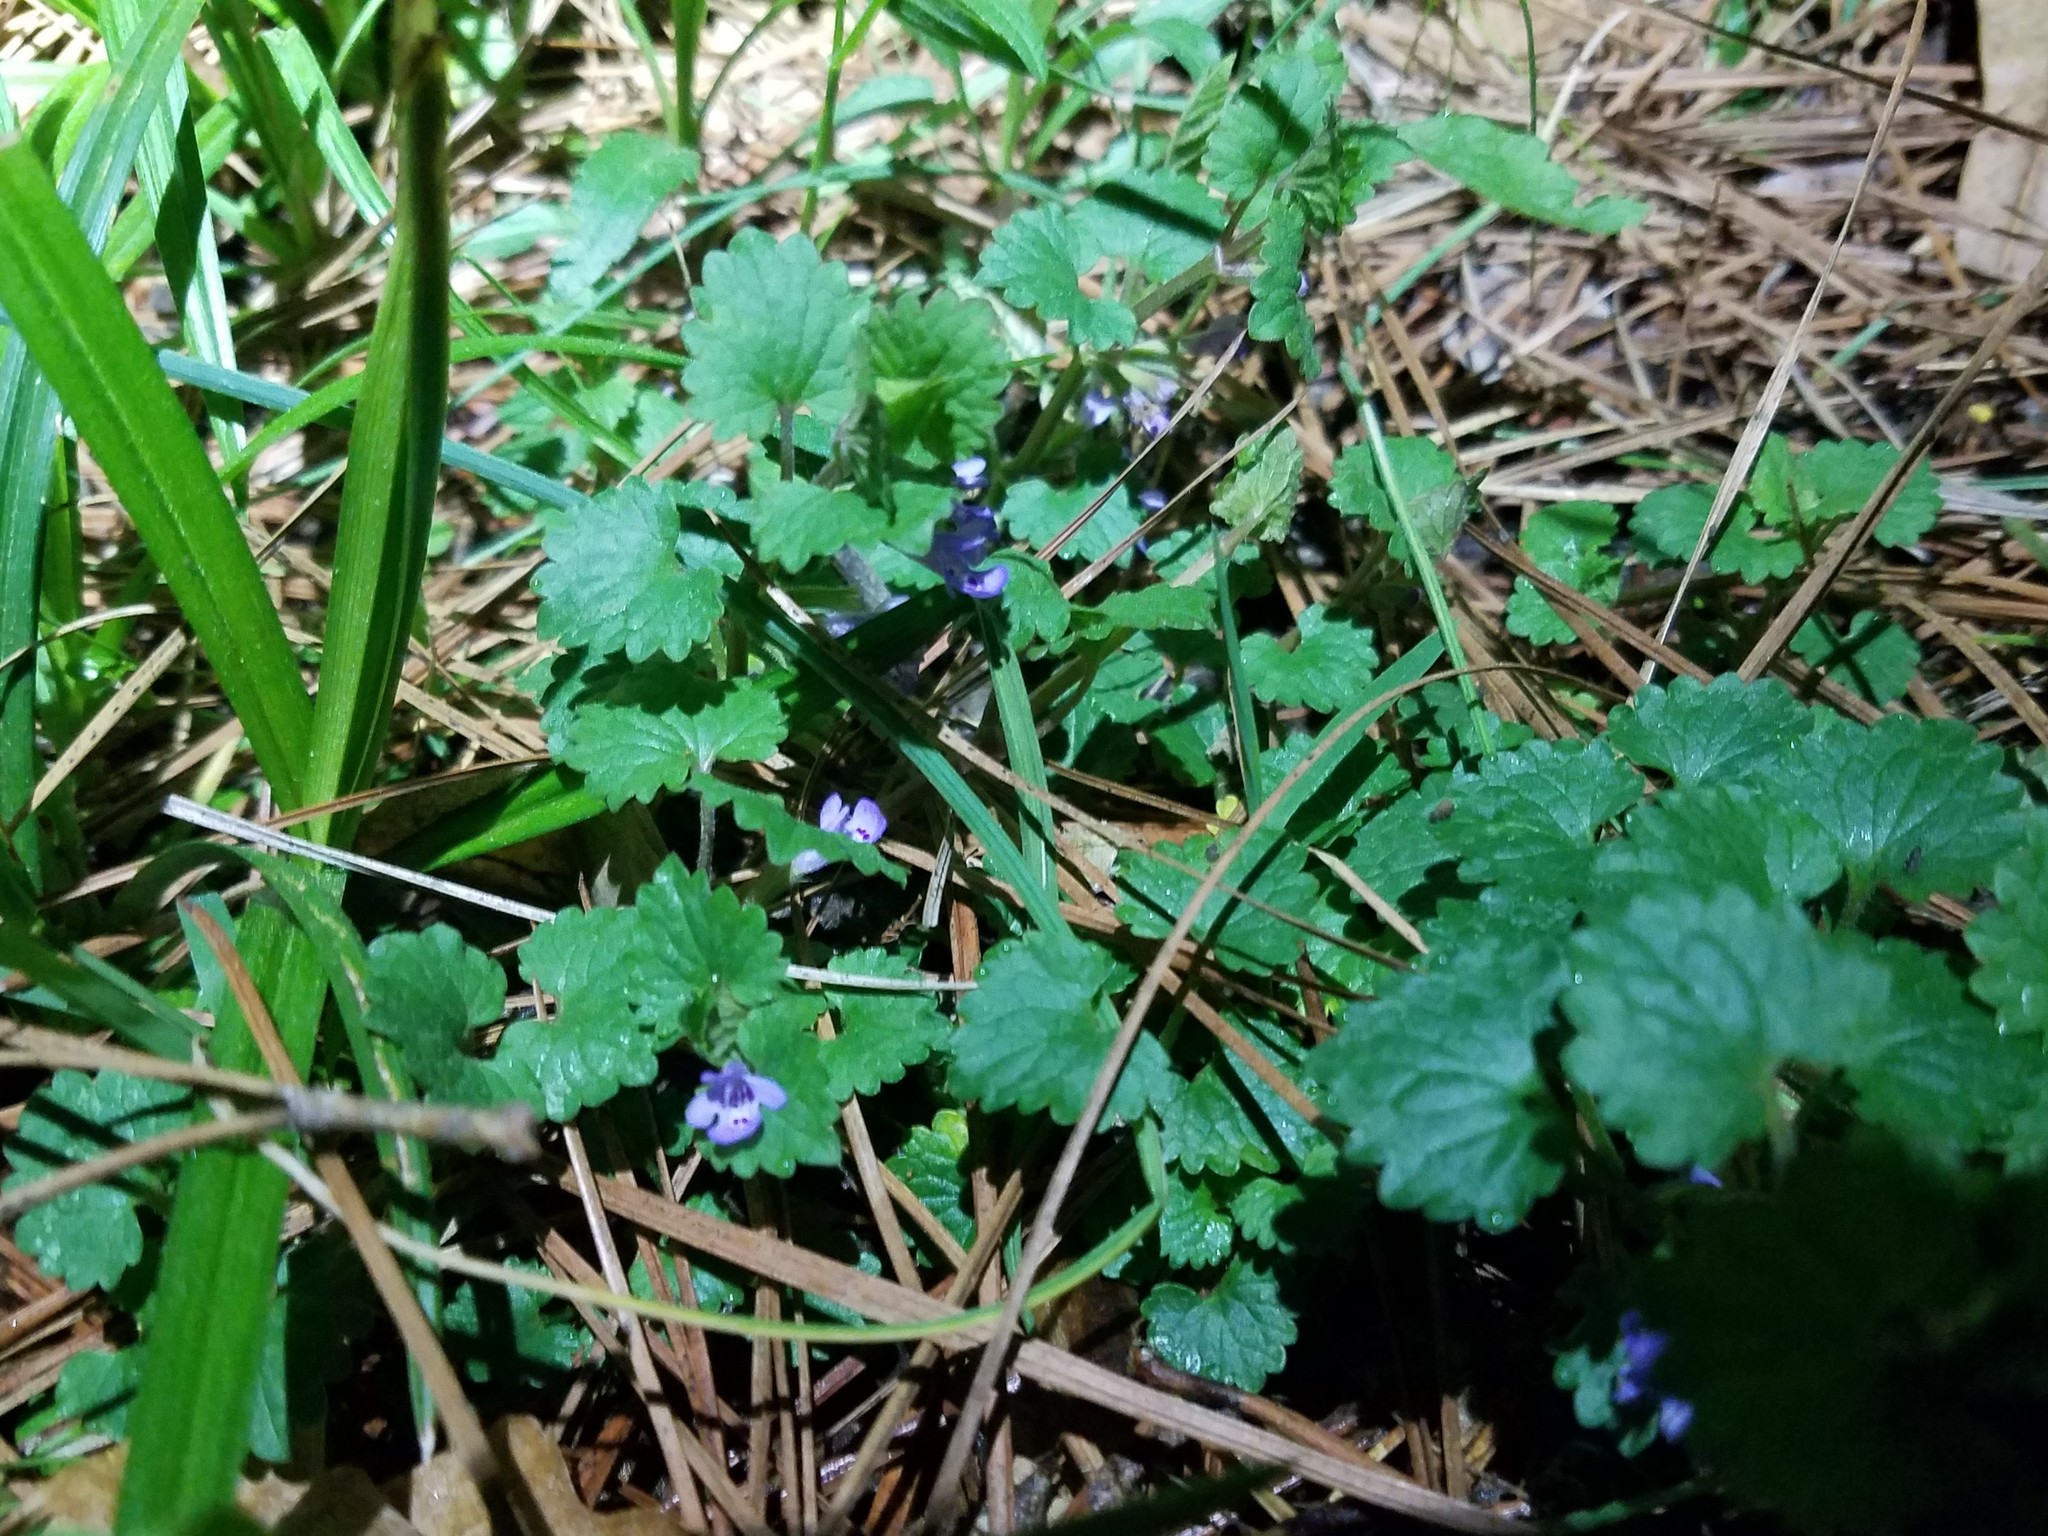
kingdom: Plantae
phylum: Tracheophyta
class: Magnoliopsida
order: Lamiales
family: Lamiaceae
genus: Glechoma
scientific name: Glechoma hederacea
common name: Ground ivy
